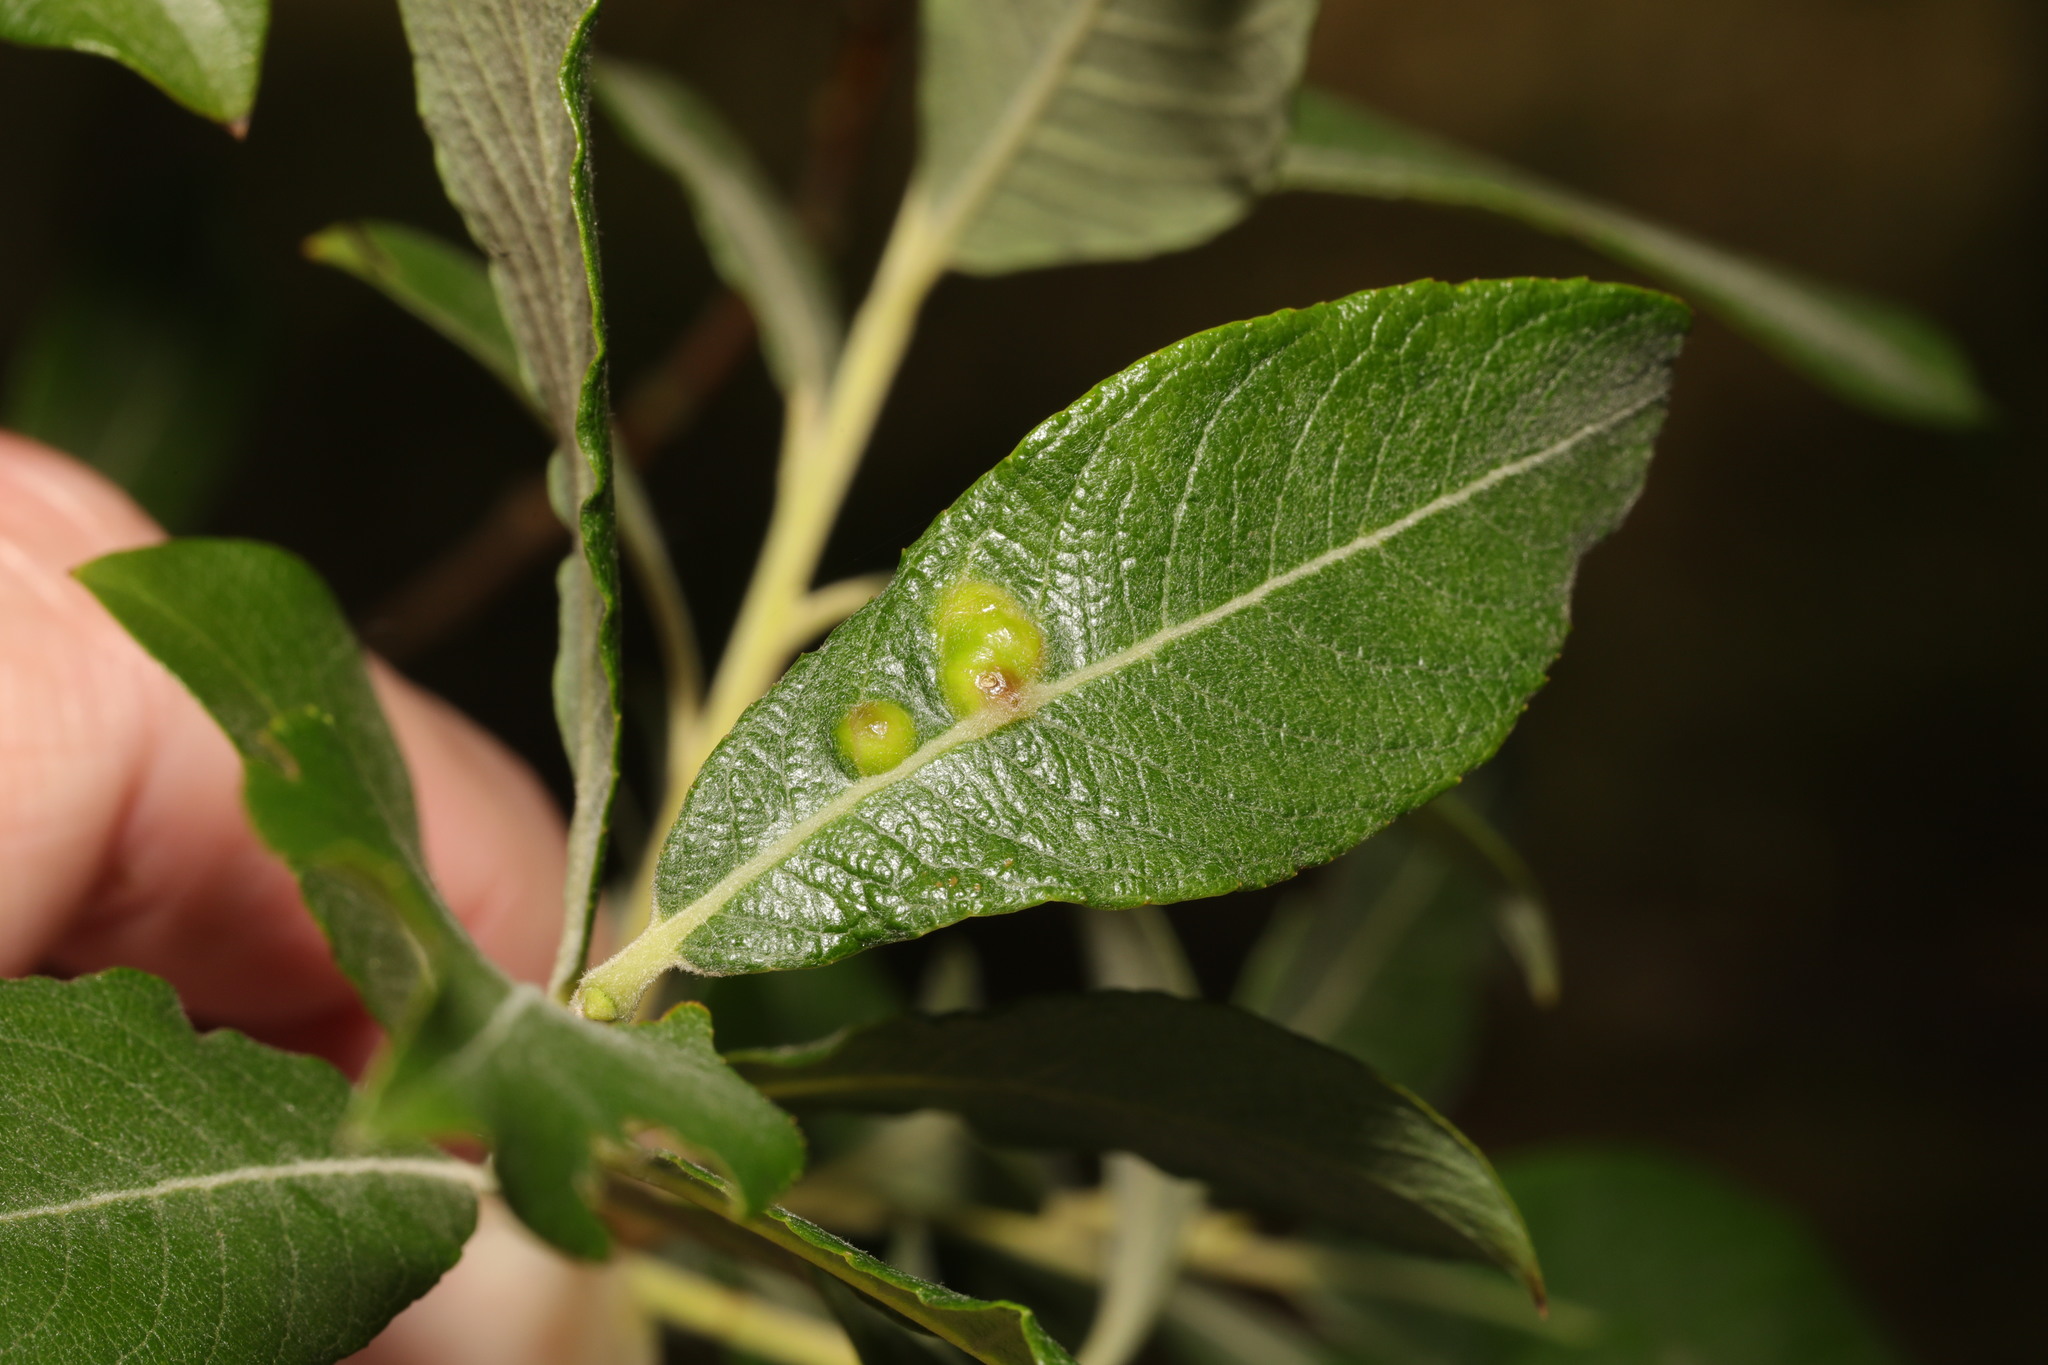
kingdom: Animalia
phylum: Arthropoda
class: Insecta
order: Diptera
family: Cecidomyiidae
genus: Iteomyia
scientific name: Iteomyia major
